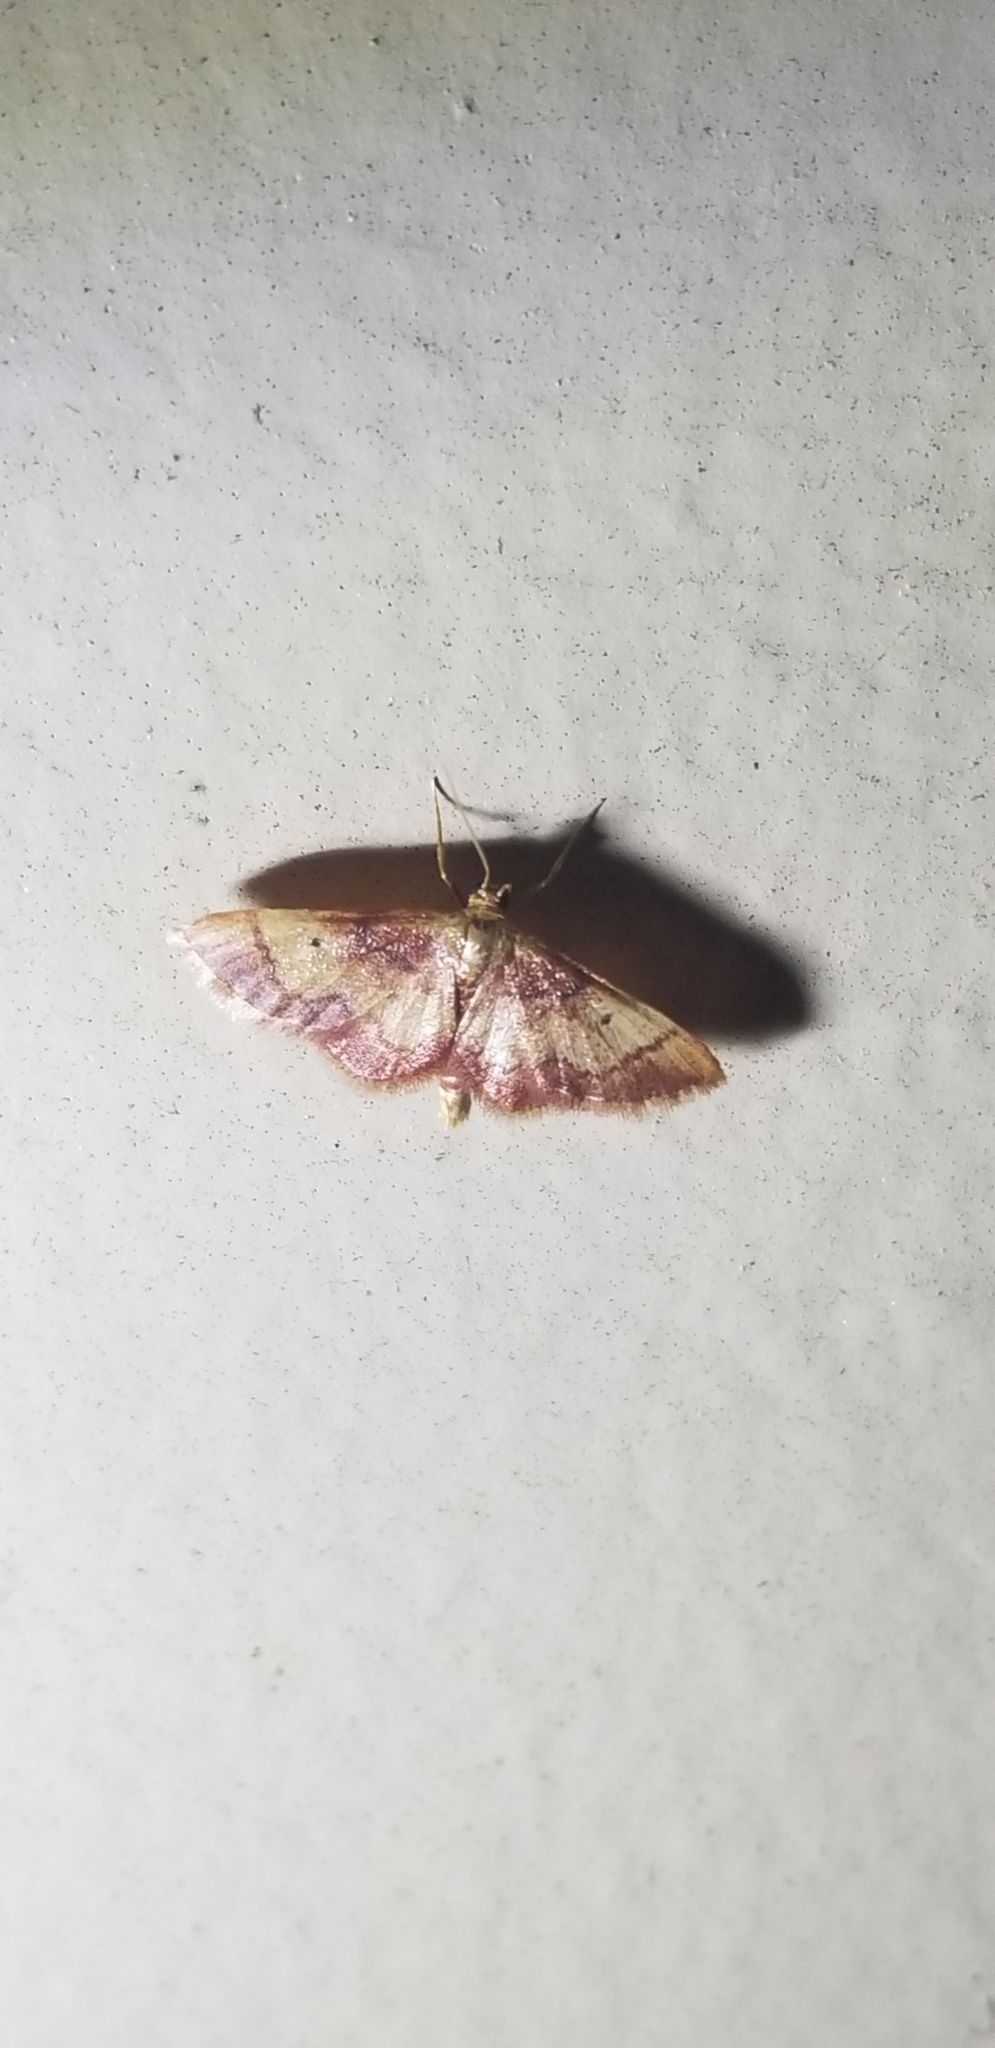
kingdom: Animalia
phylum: Arthropoda
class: Insecta
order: Lepidoptera
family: Geometridae
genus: Idaea
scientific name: Idaea demissaria
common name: Red-bordered wave
